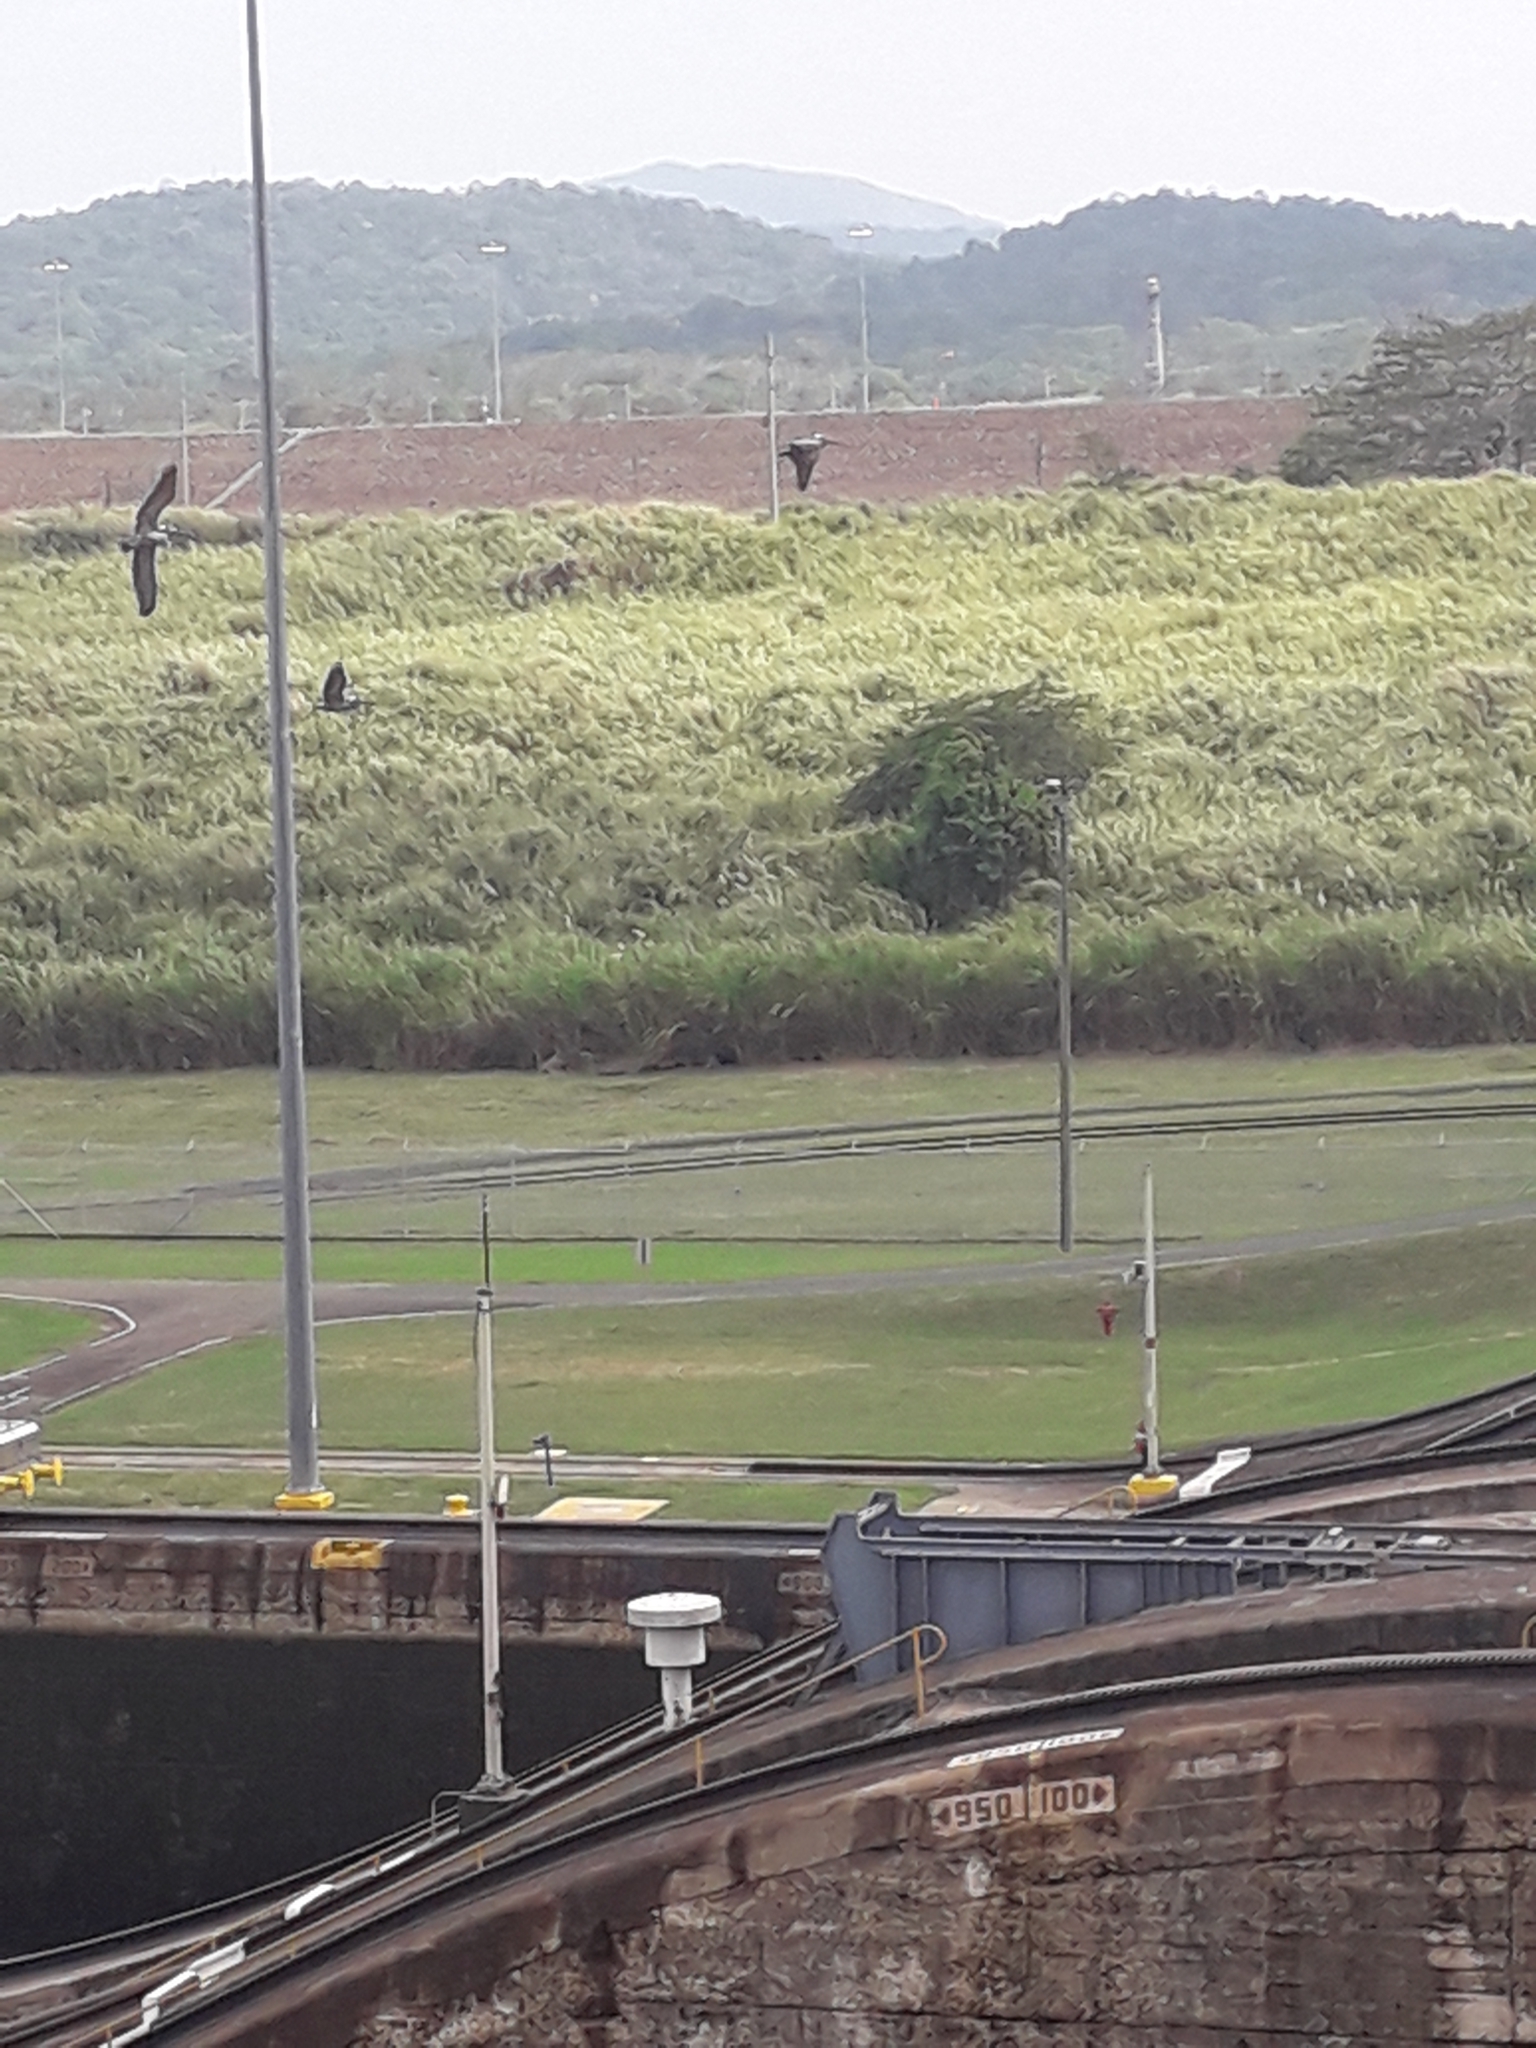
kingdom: Animalia
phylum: Chordata
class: Aves
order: Pelecaniformes
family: Pelecanidae
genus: Pelecanus
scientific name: Pelecanus occidentalis
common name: Brown pelican
